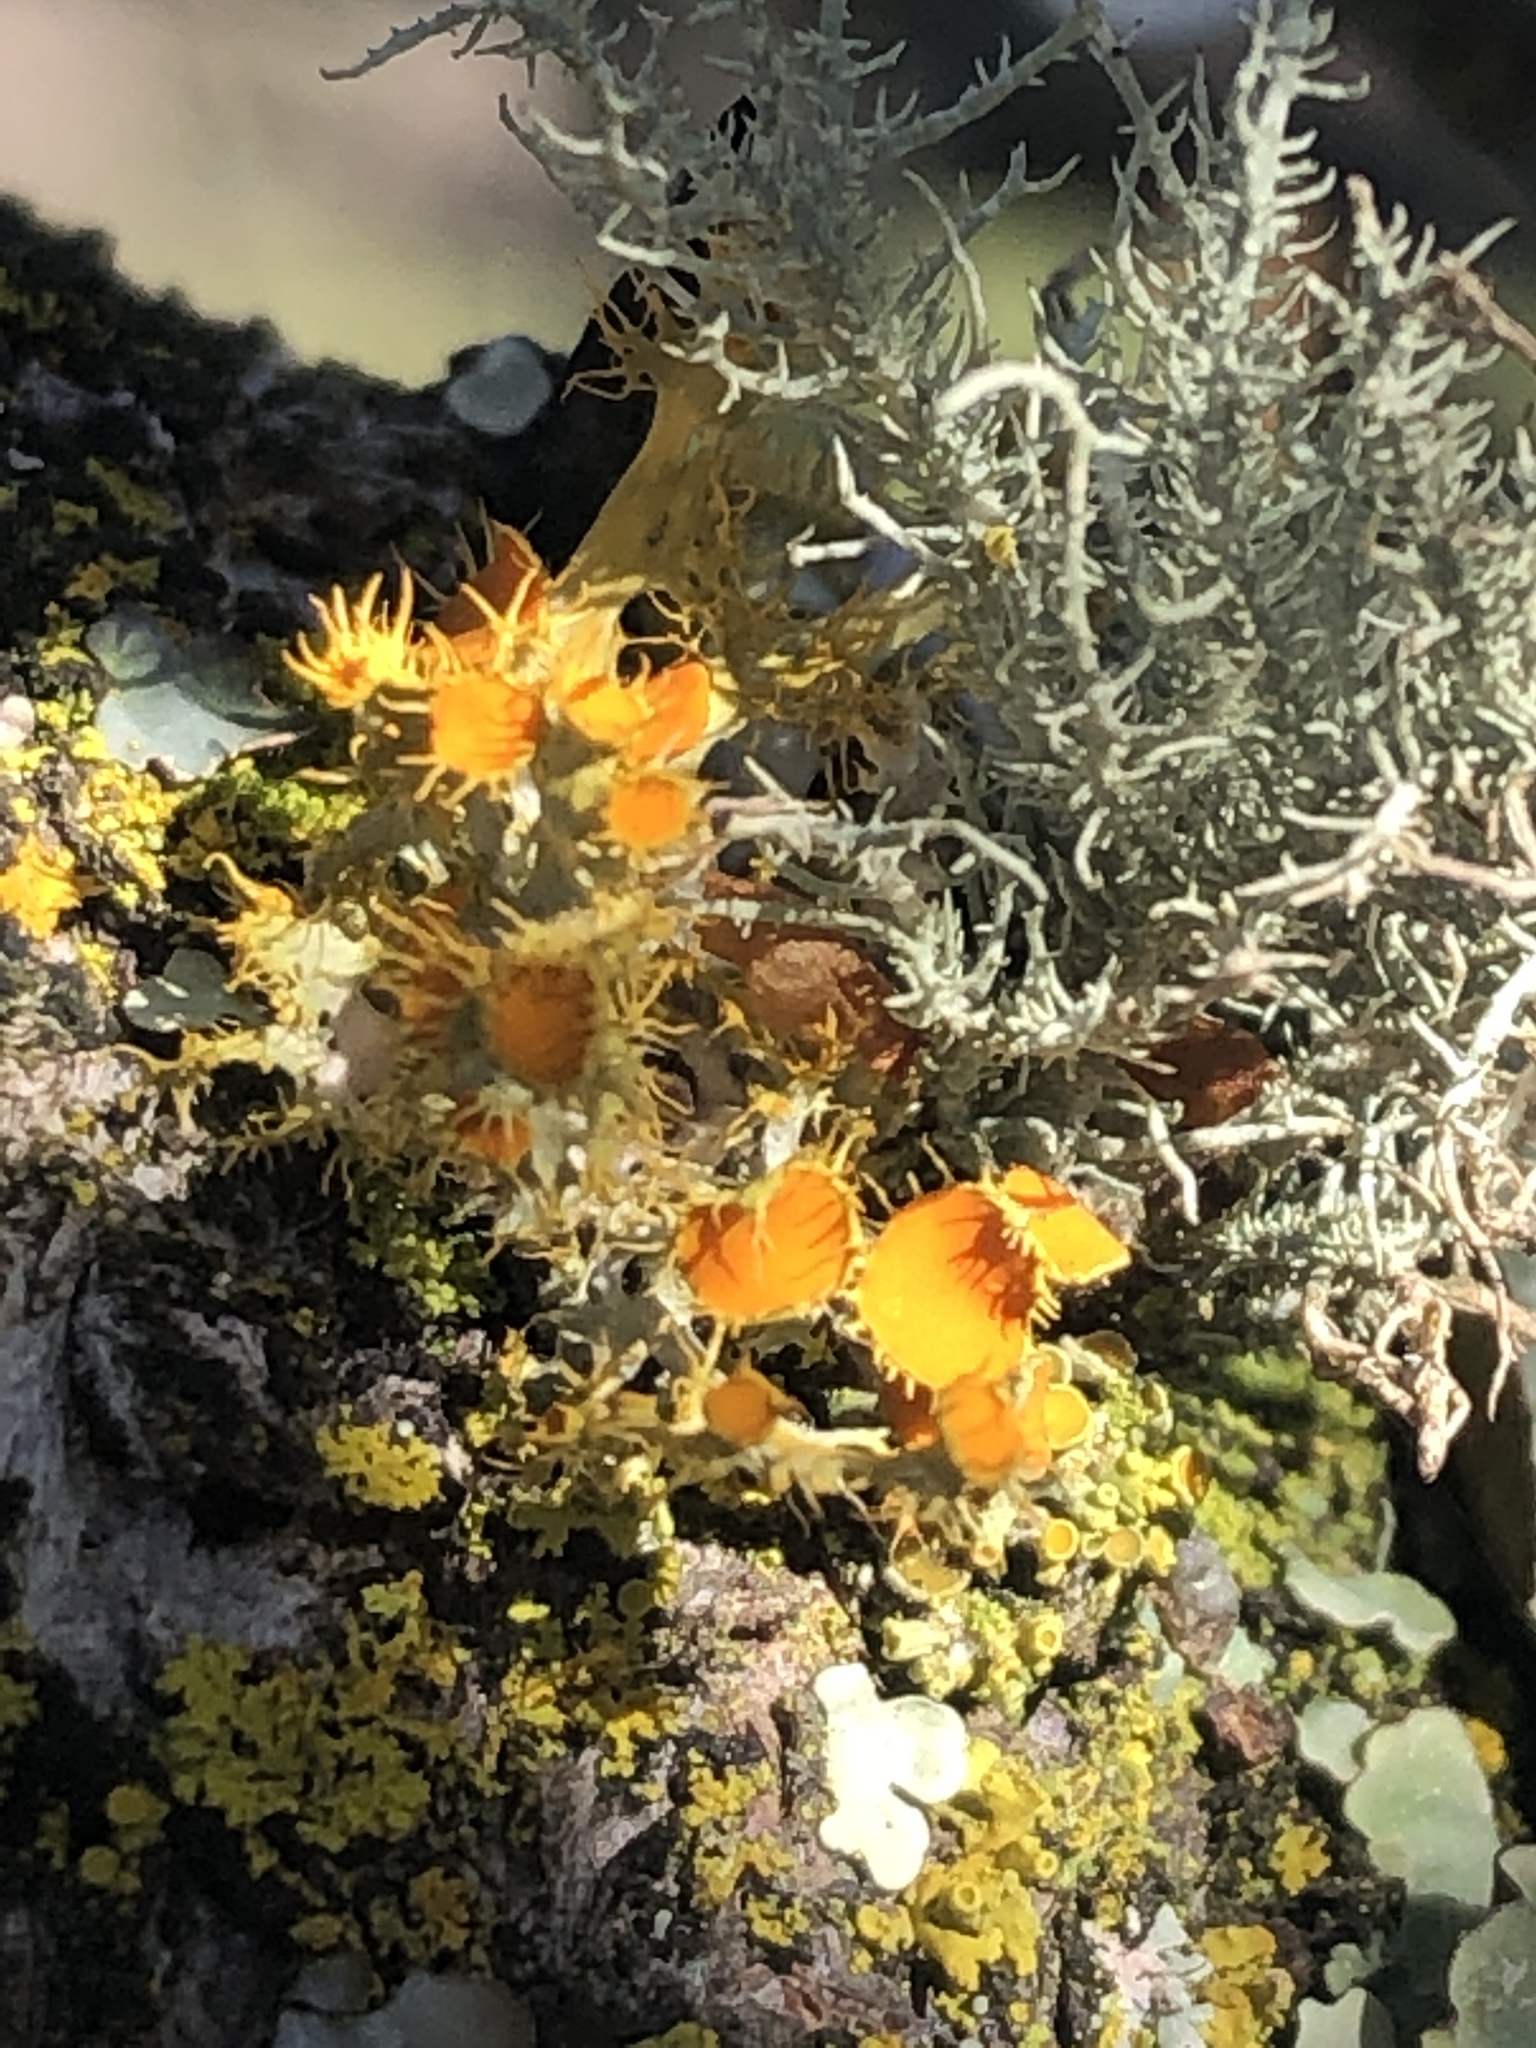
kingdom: Fungi
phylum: Ascomycota
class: Lecanoromycetes
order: Teloschistales
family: Teloschistaceae
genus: Niorma
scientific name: Niorma chrysophthalma
